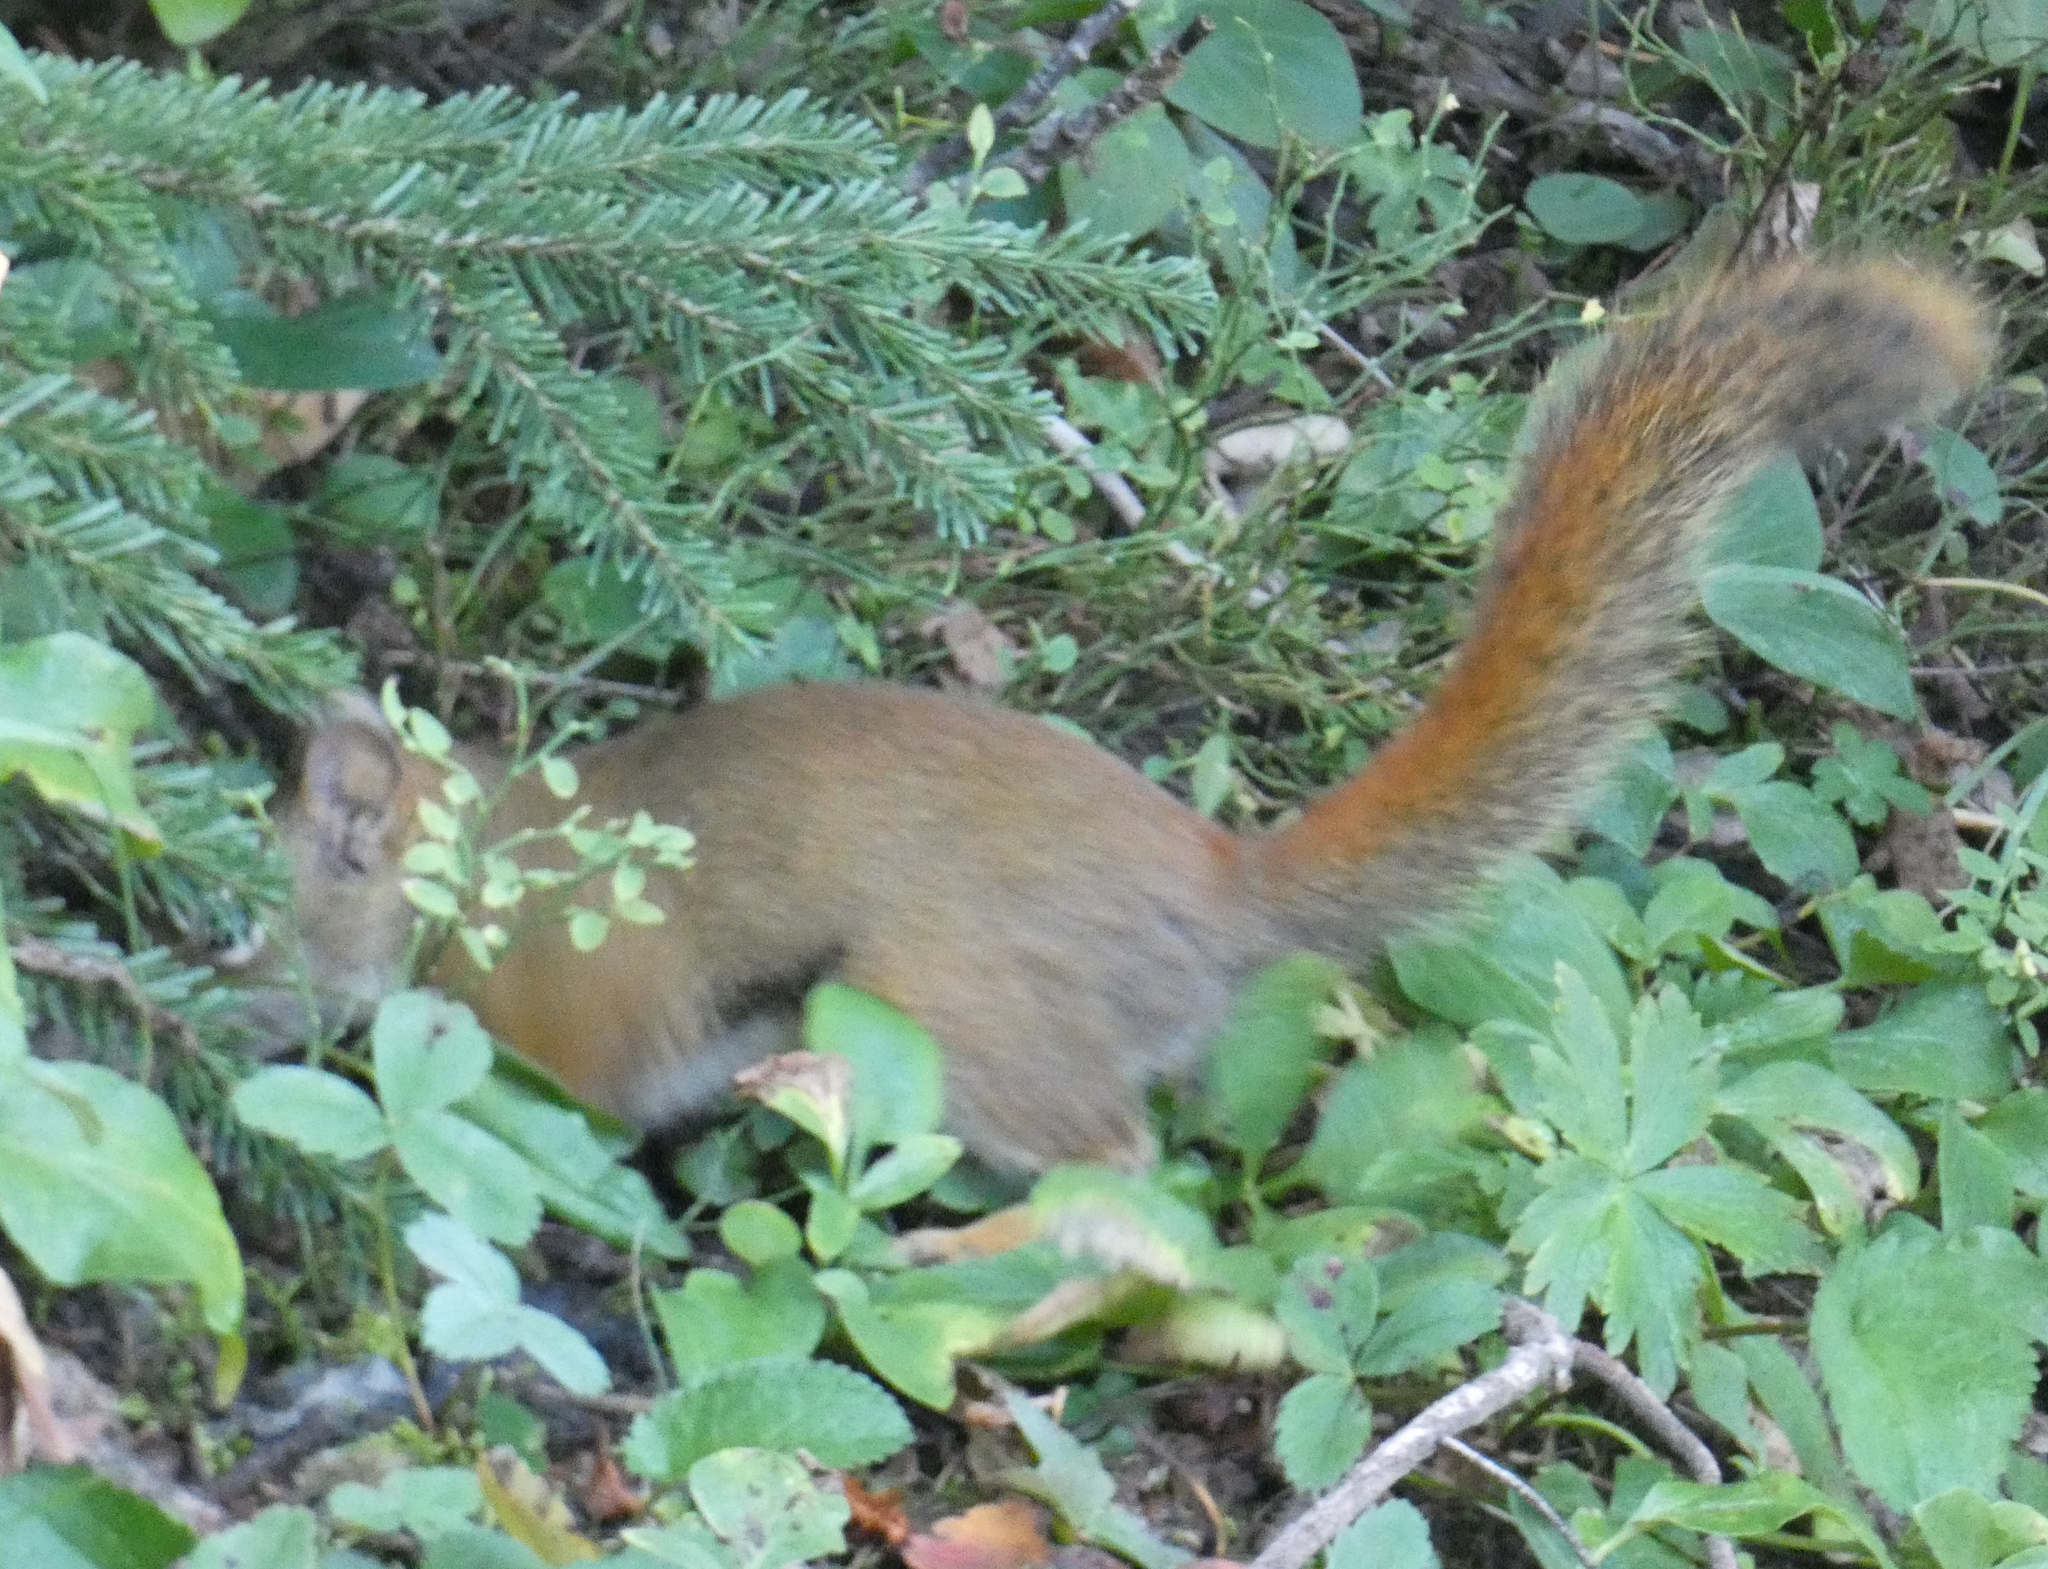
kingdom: Animalia
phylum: Chordata
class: Mammalia
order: Rodentia
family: Sciuridae
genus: Tamiasciurus
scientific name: Tamiasciurus hudsonicus
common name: Red squirrel
